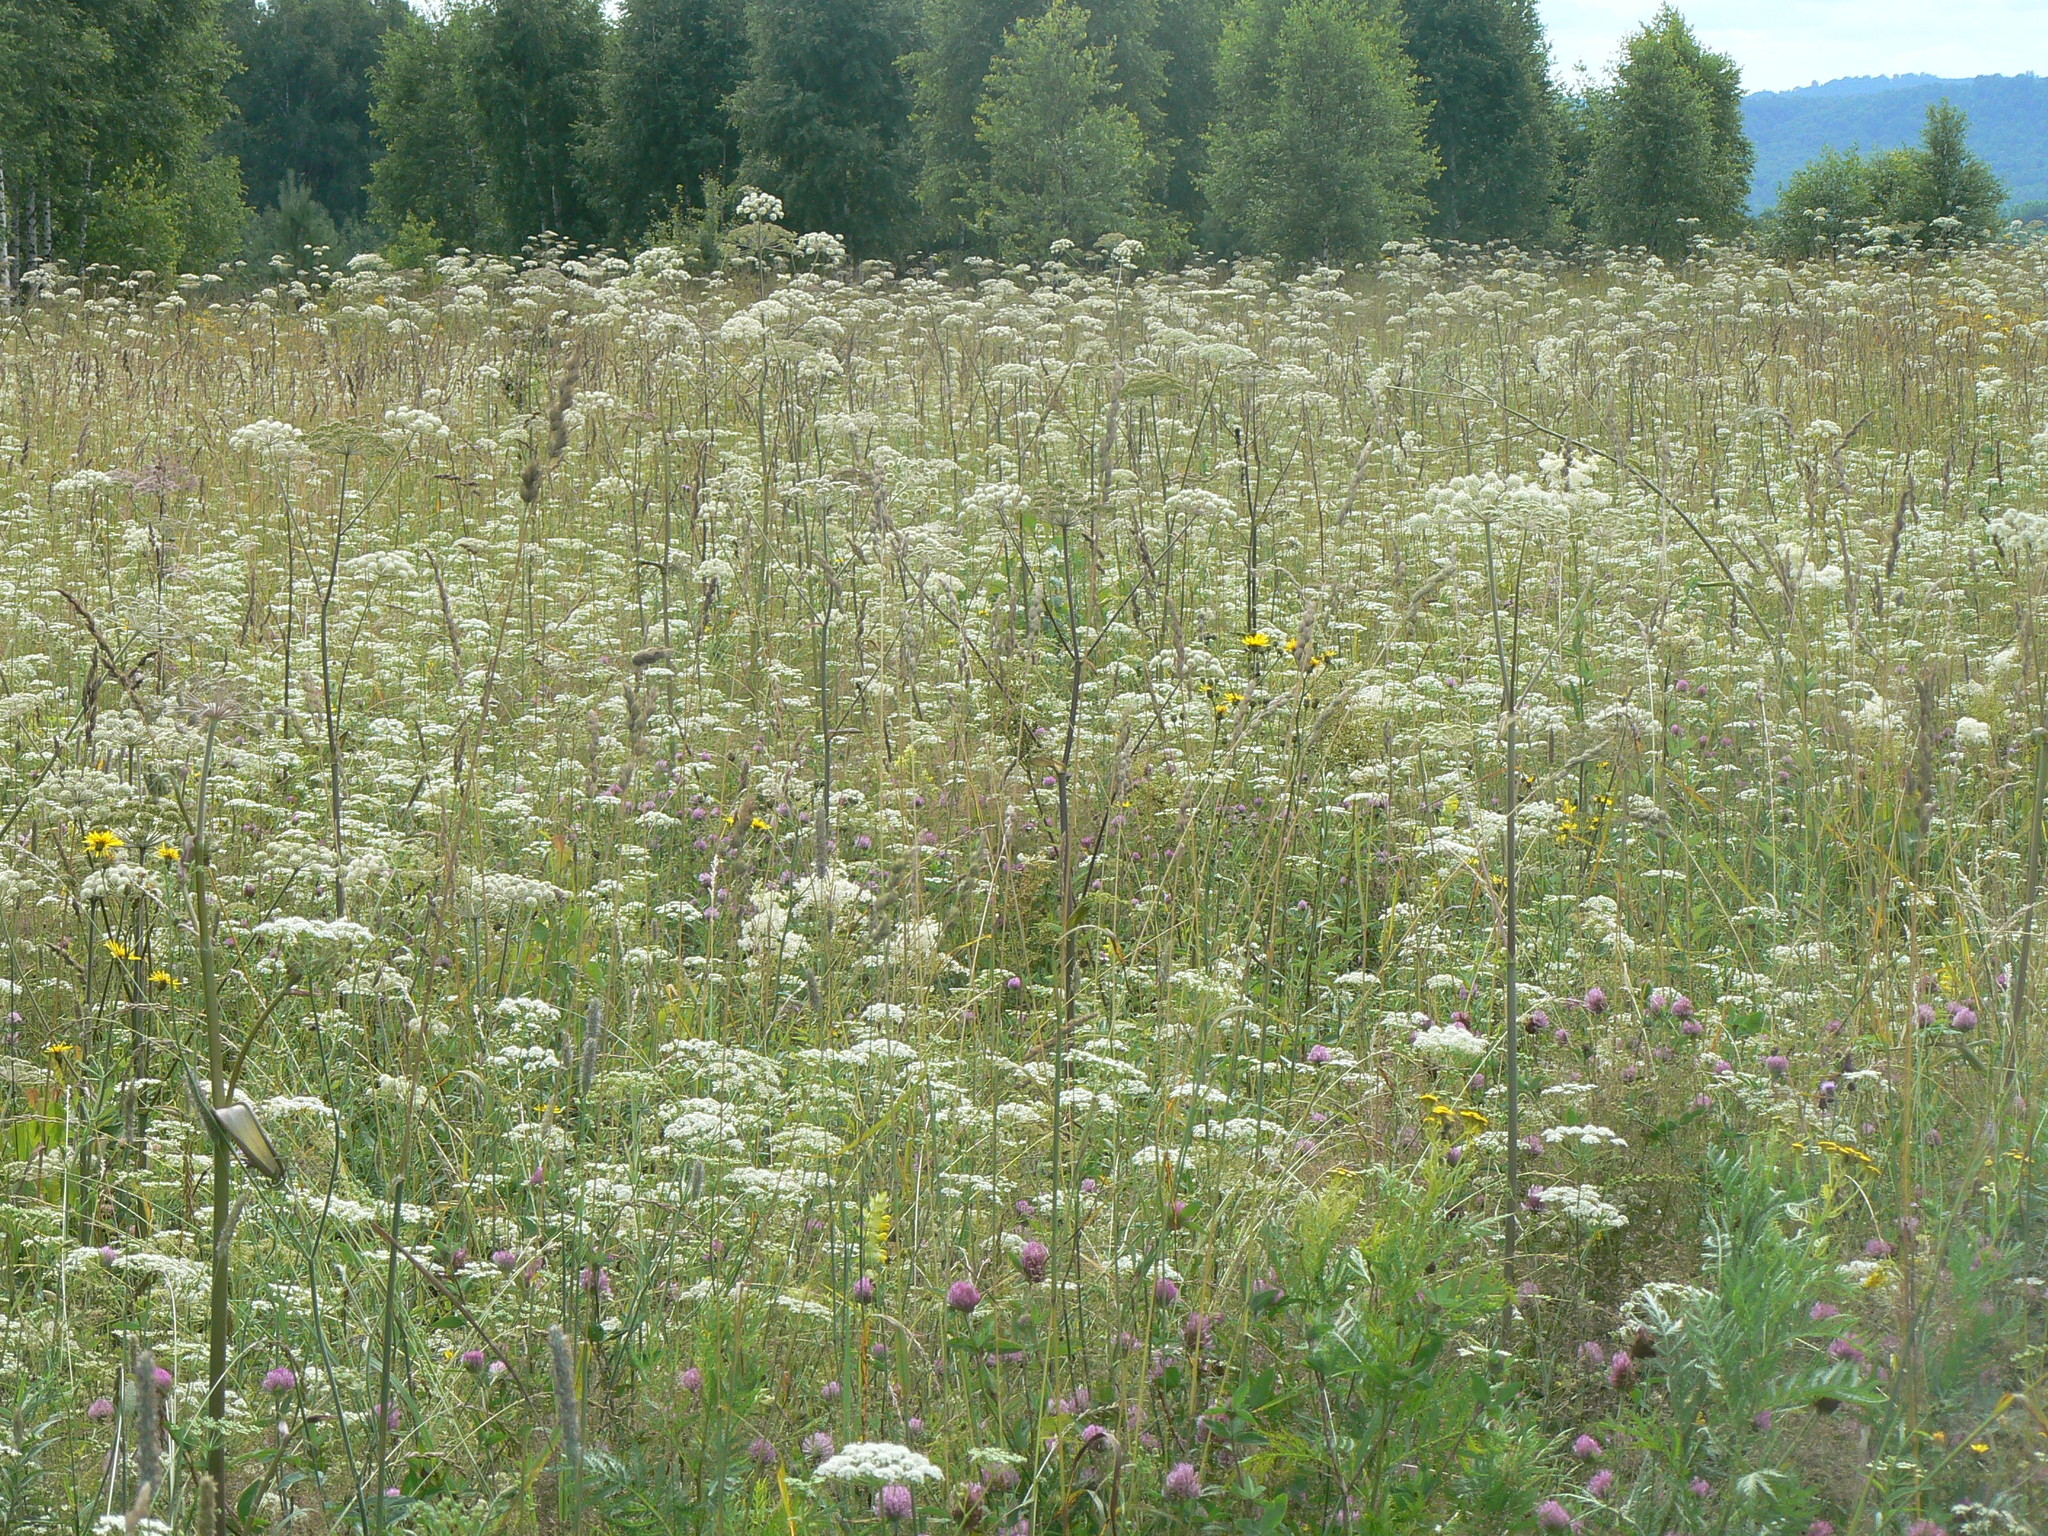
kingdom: Plantae
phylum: Tracheophyta
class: Magnoliopsida
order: Apiales
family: Apiaceae
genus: Angelica
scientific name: Angelica sylvestris
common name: Wild angelica
